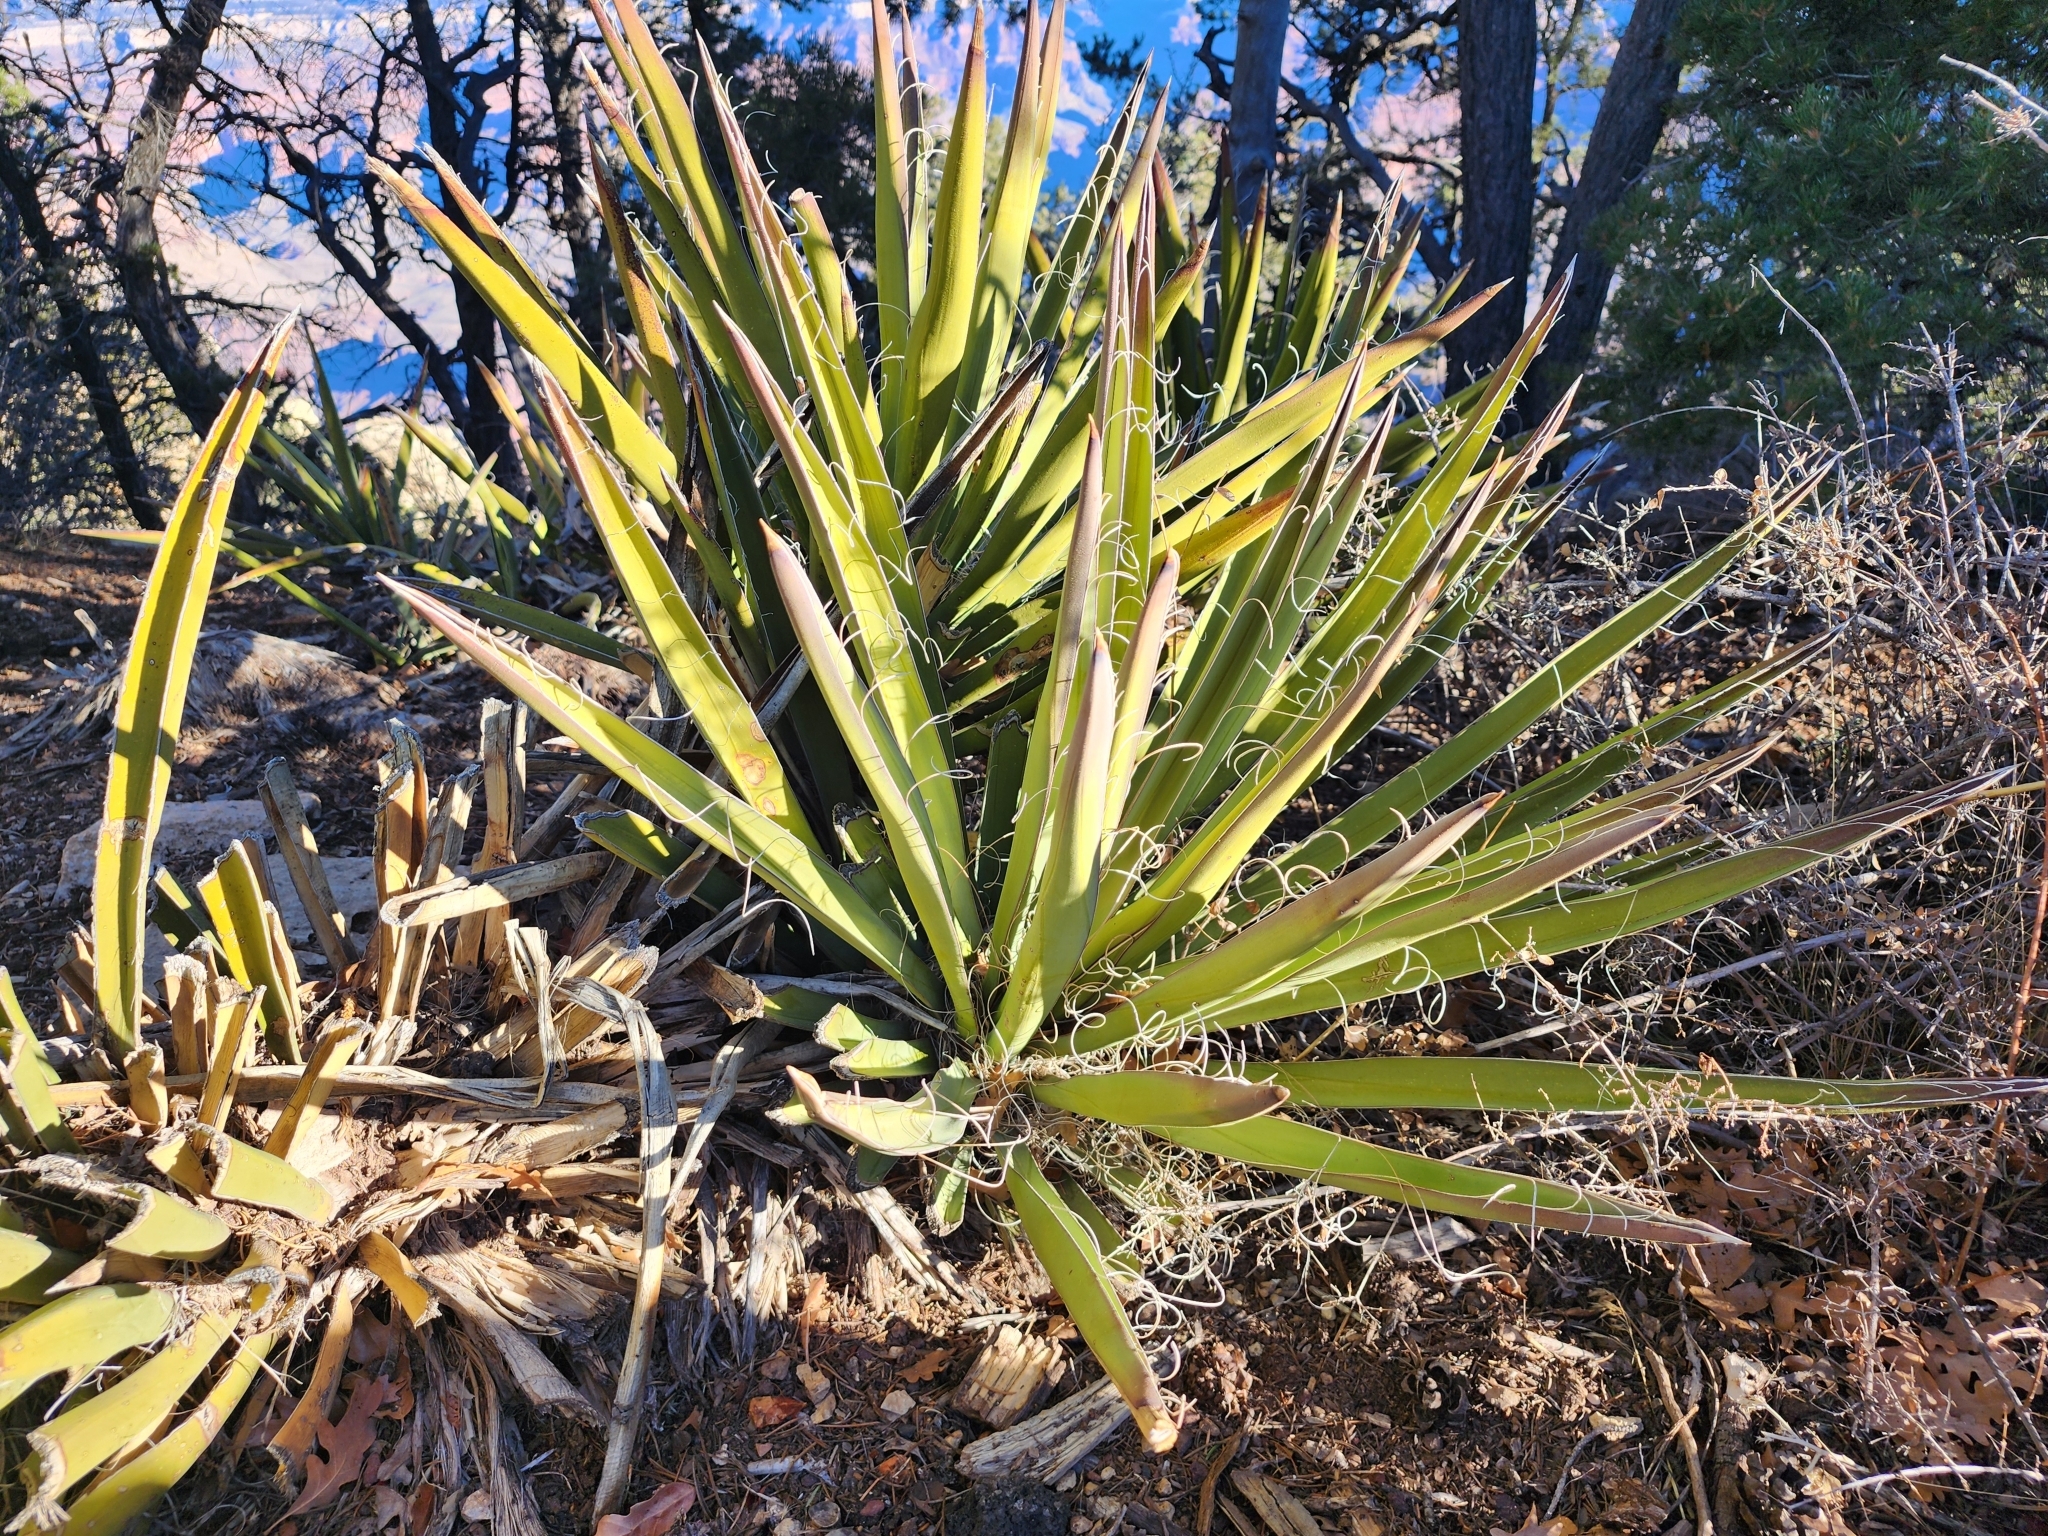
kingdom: Plantae
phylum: Tracheophyta
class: Liliopsida
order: Asparagales
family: Asparagaceae
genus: Yucca
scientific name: Yucca baccata
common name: Banana yucca
